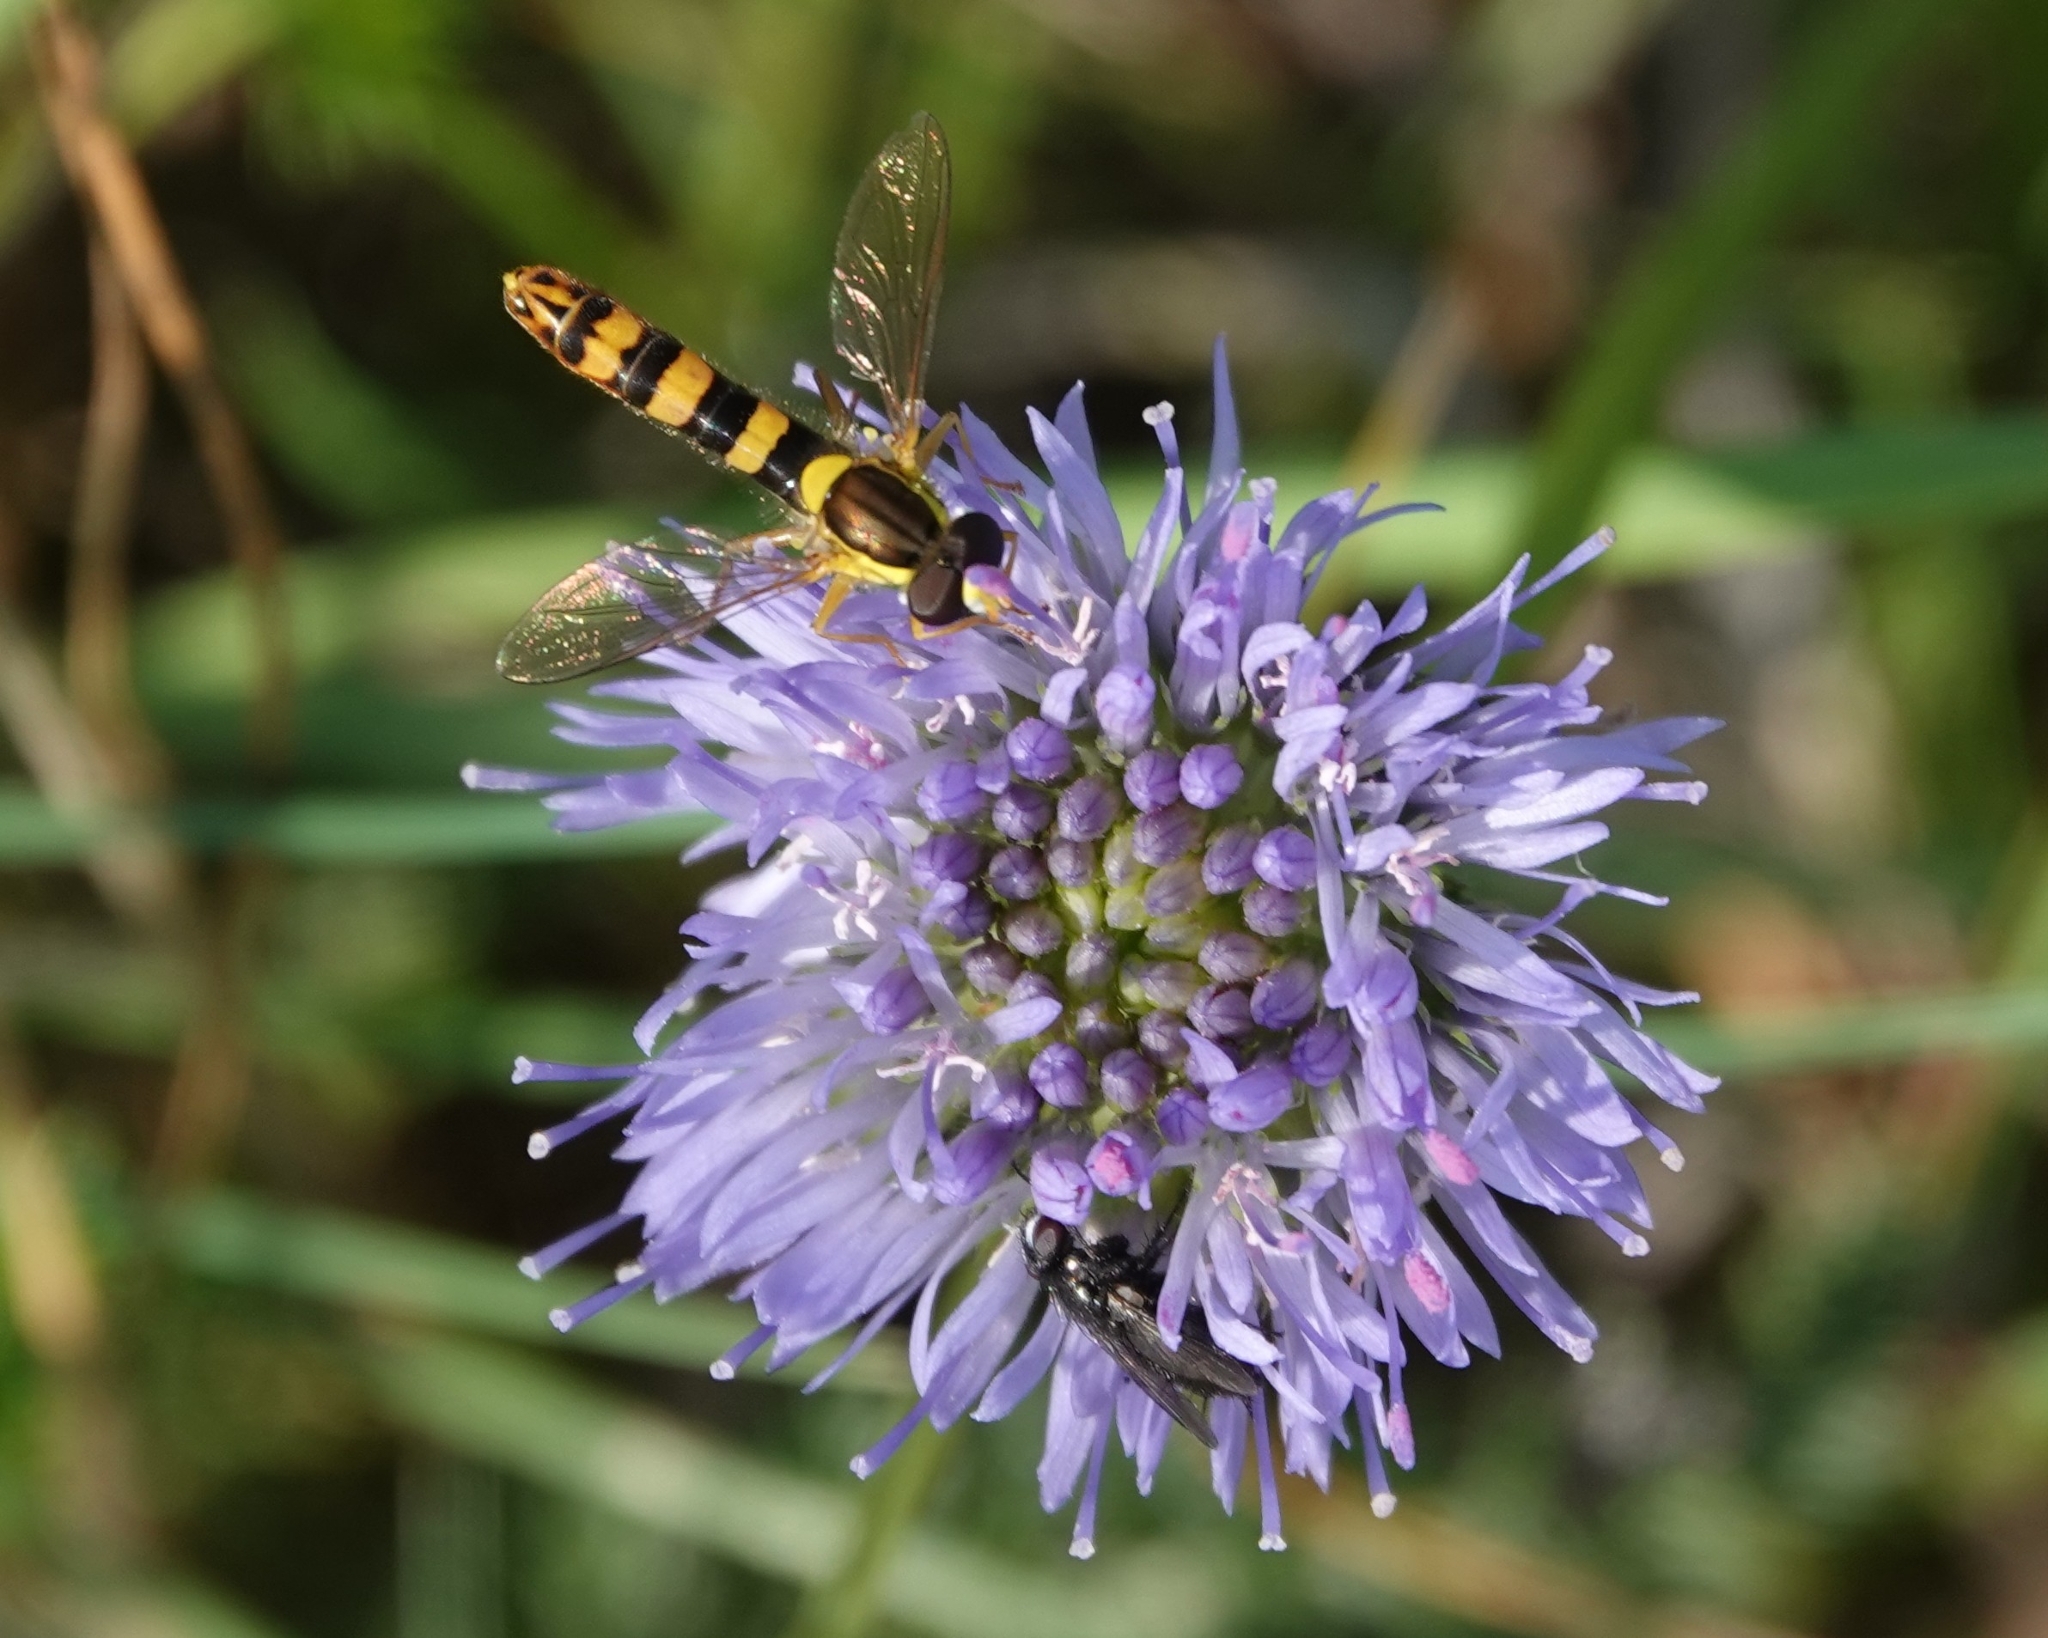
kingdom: Animalia
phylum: Arthropoda
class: Insecta
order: Diptera
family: Syrphidae
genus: Sphaerophoria
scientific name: Sphaerophoria scripta
